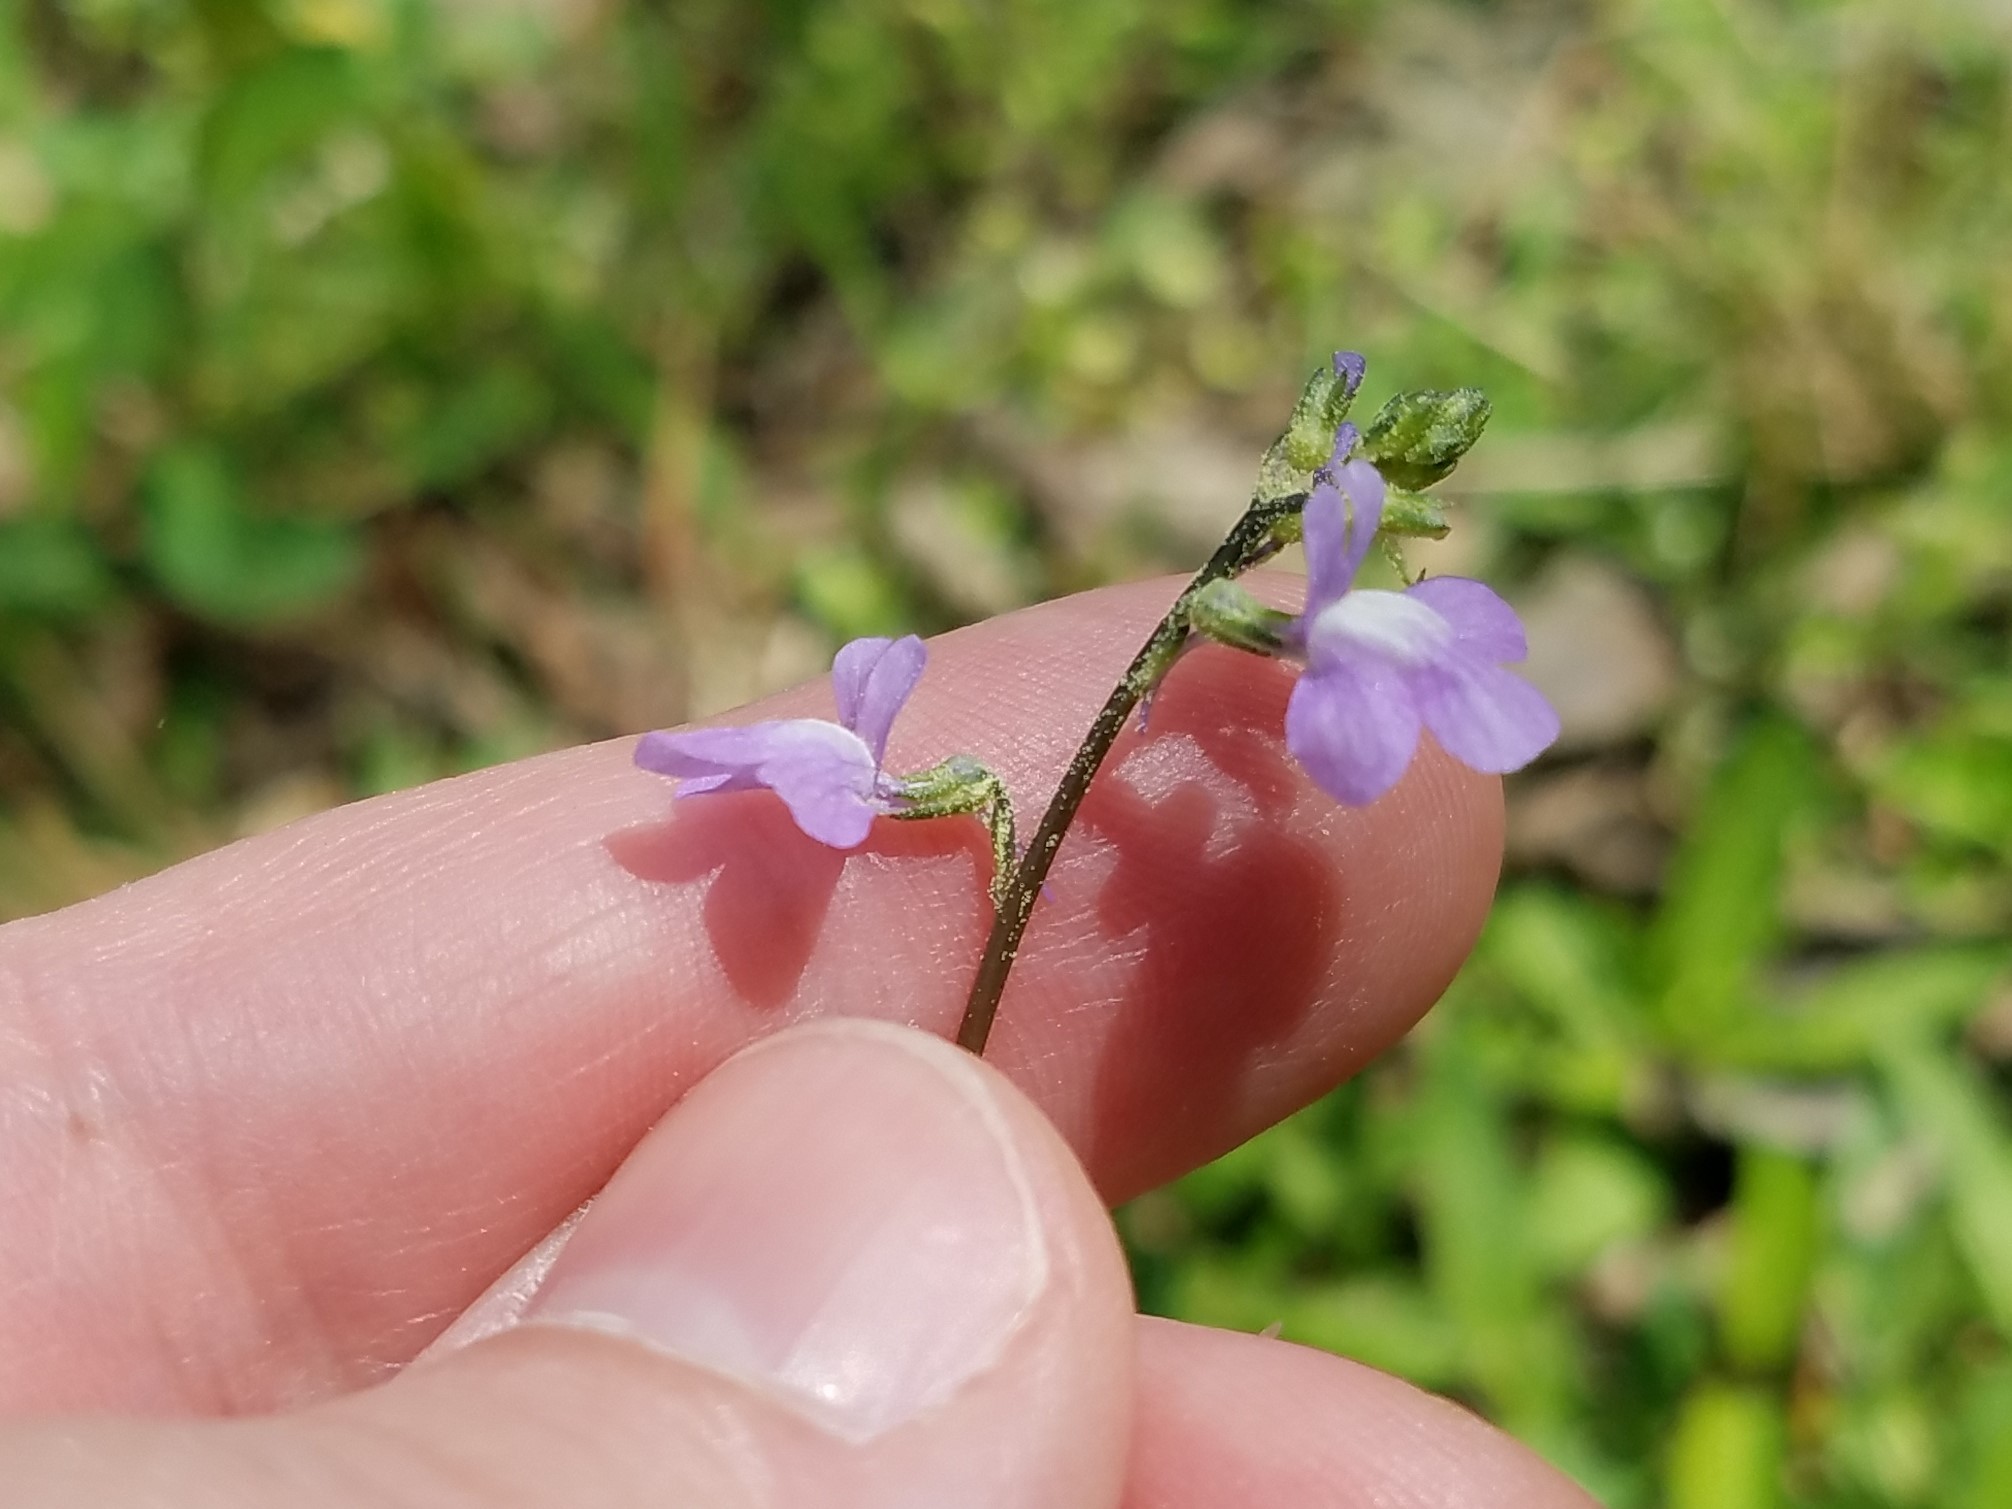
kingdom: Plantae
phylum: Tracheophyta
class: Magnoliopsida
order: Lamiales
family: Plantaginaceae
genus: Nuttallanthus
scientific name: Nuttallanthus canadensis
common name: Blue toadflax
